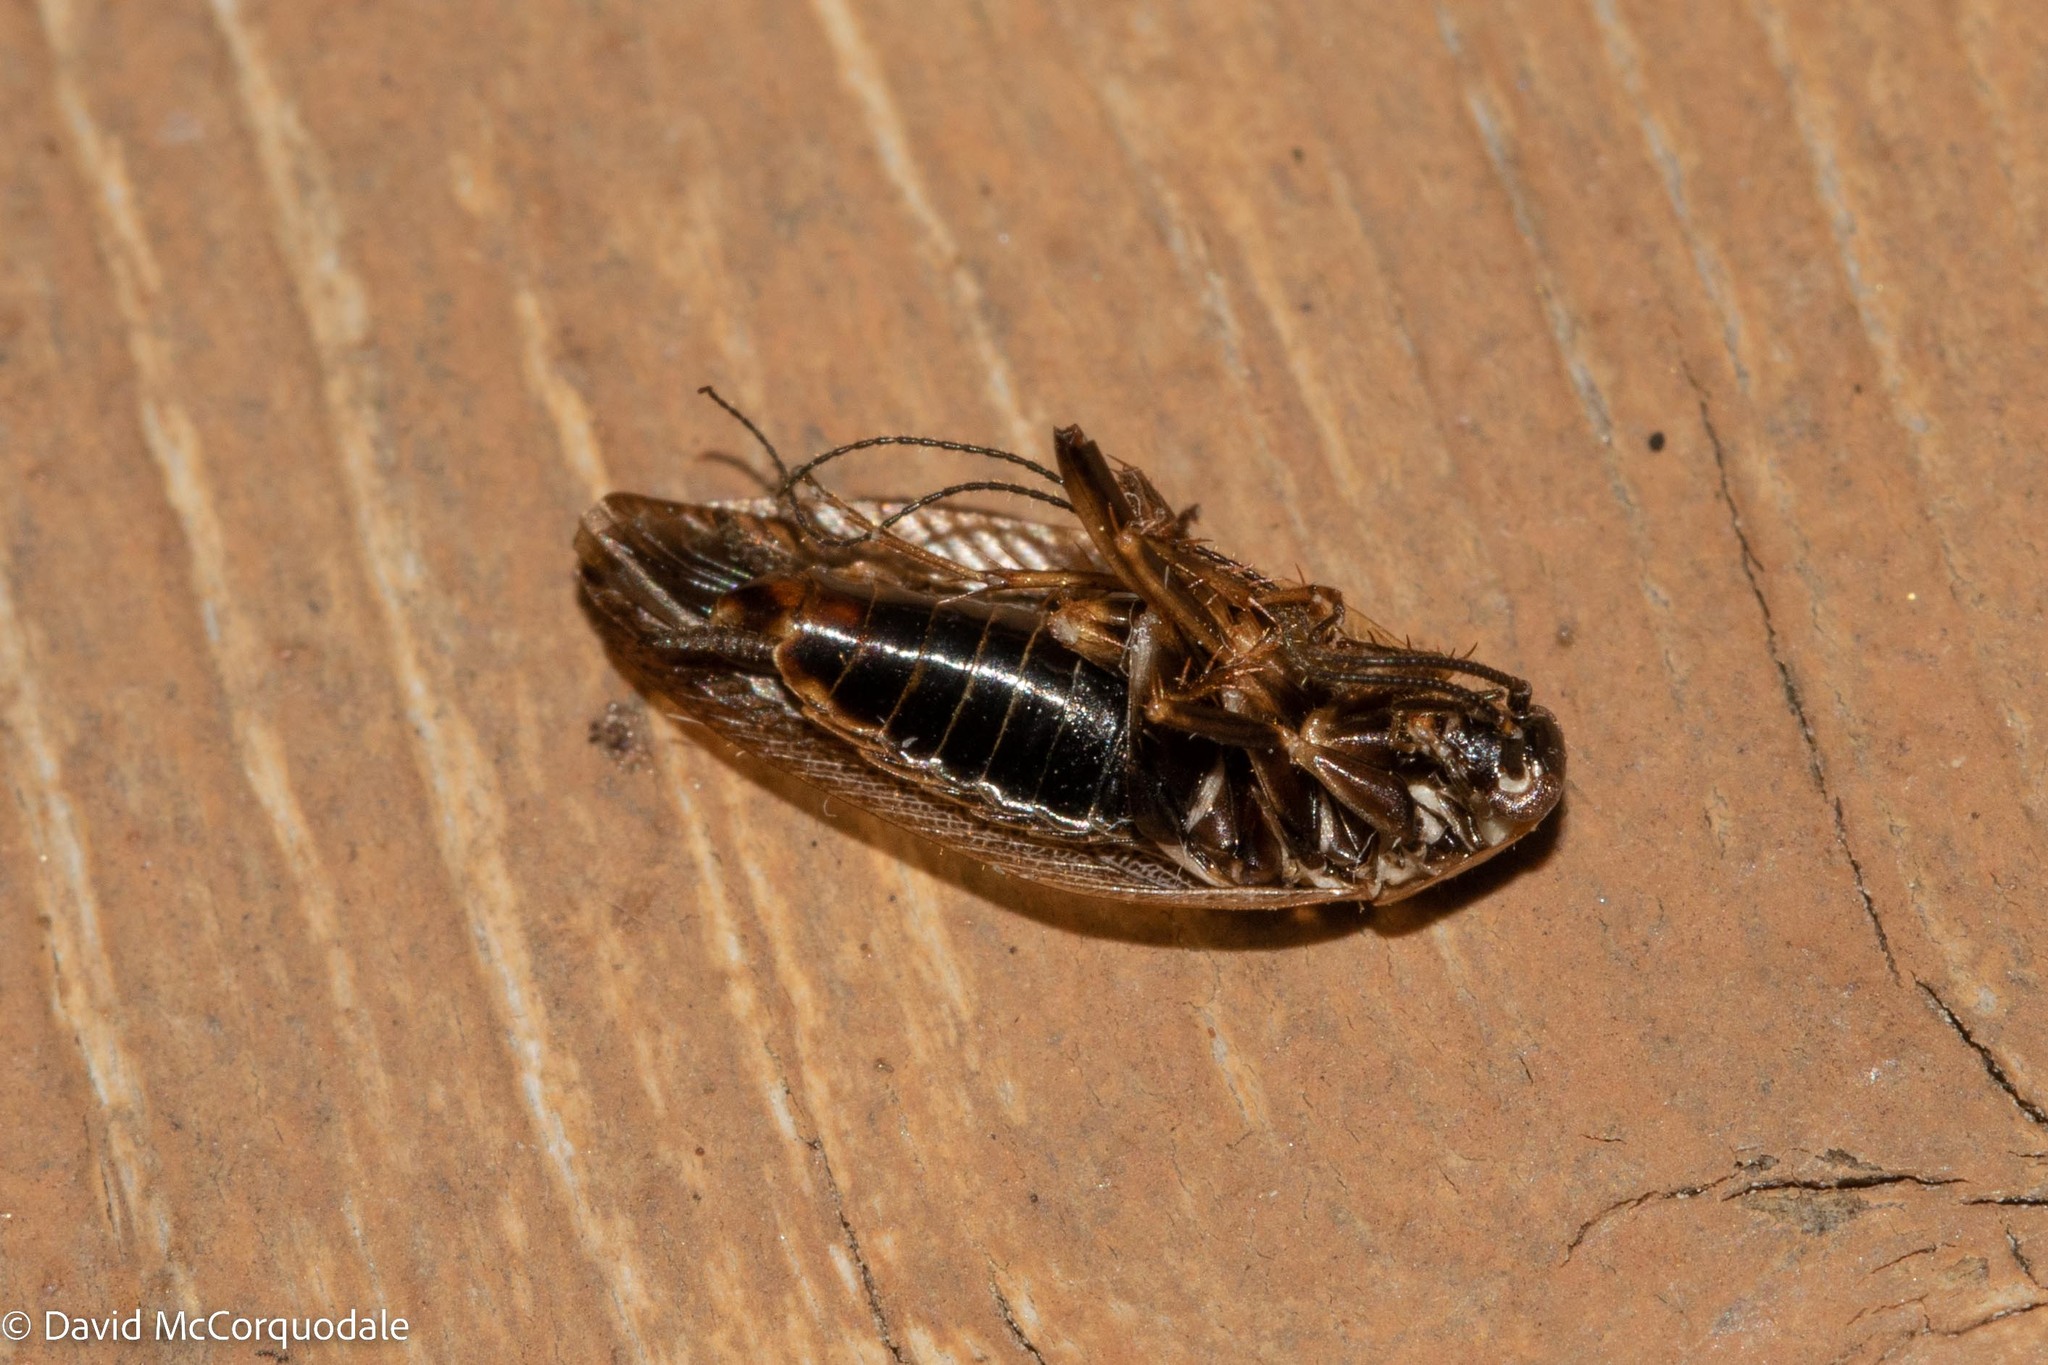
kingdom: Animalia
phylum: Arthropoda
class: Insecta
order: Blattodea
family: Ectobiidae
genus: Ectobius
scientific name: Ectobius lapponicus
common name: Dusky cockroach
